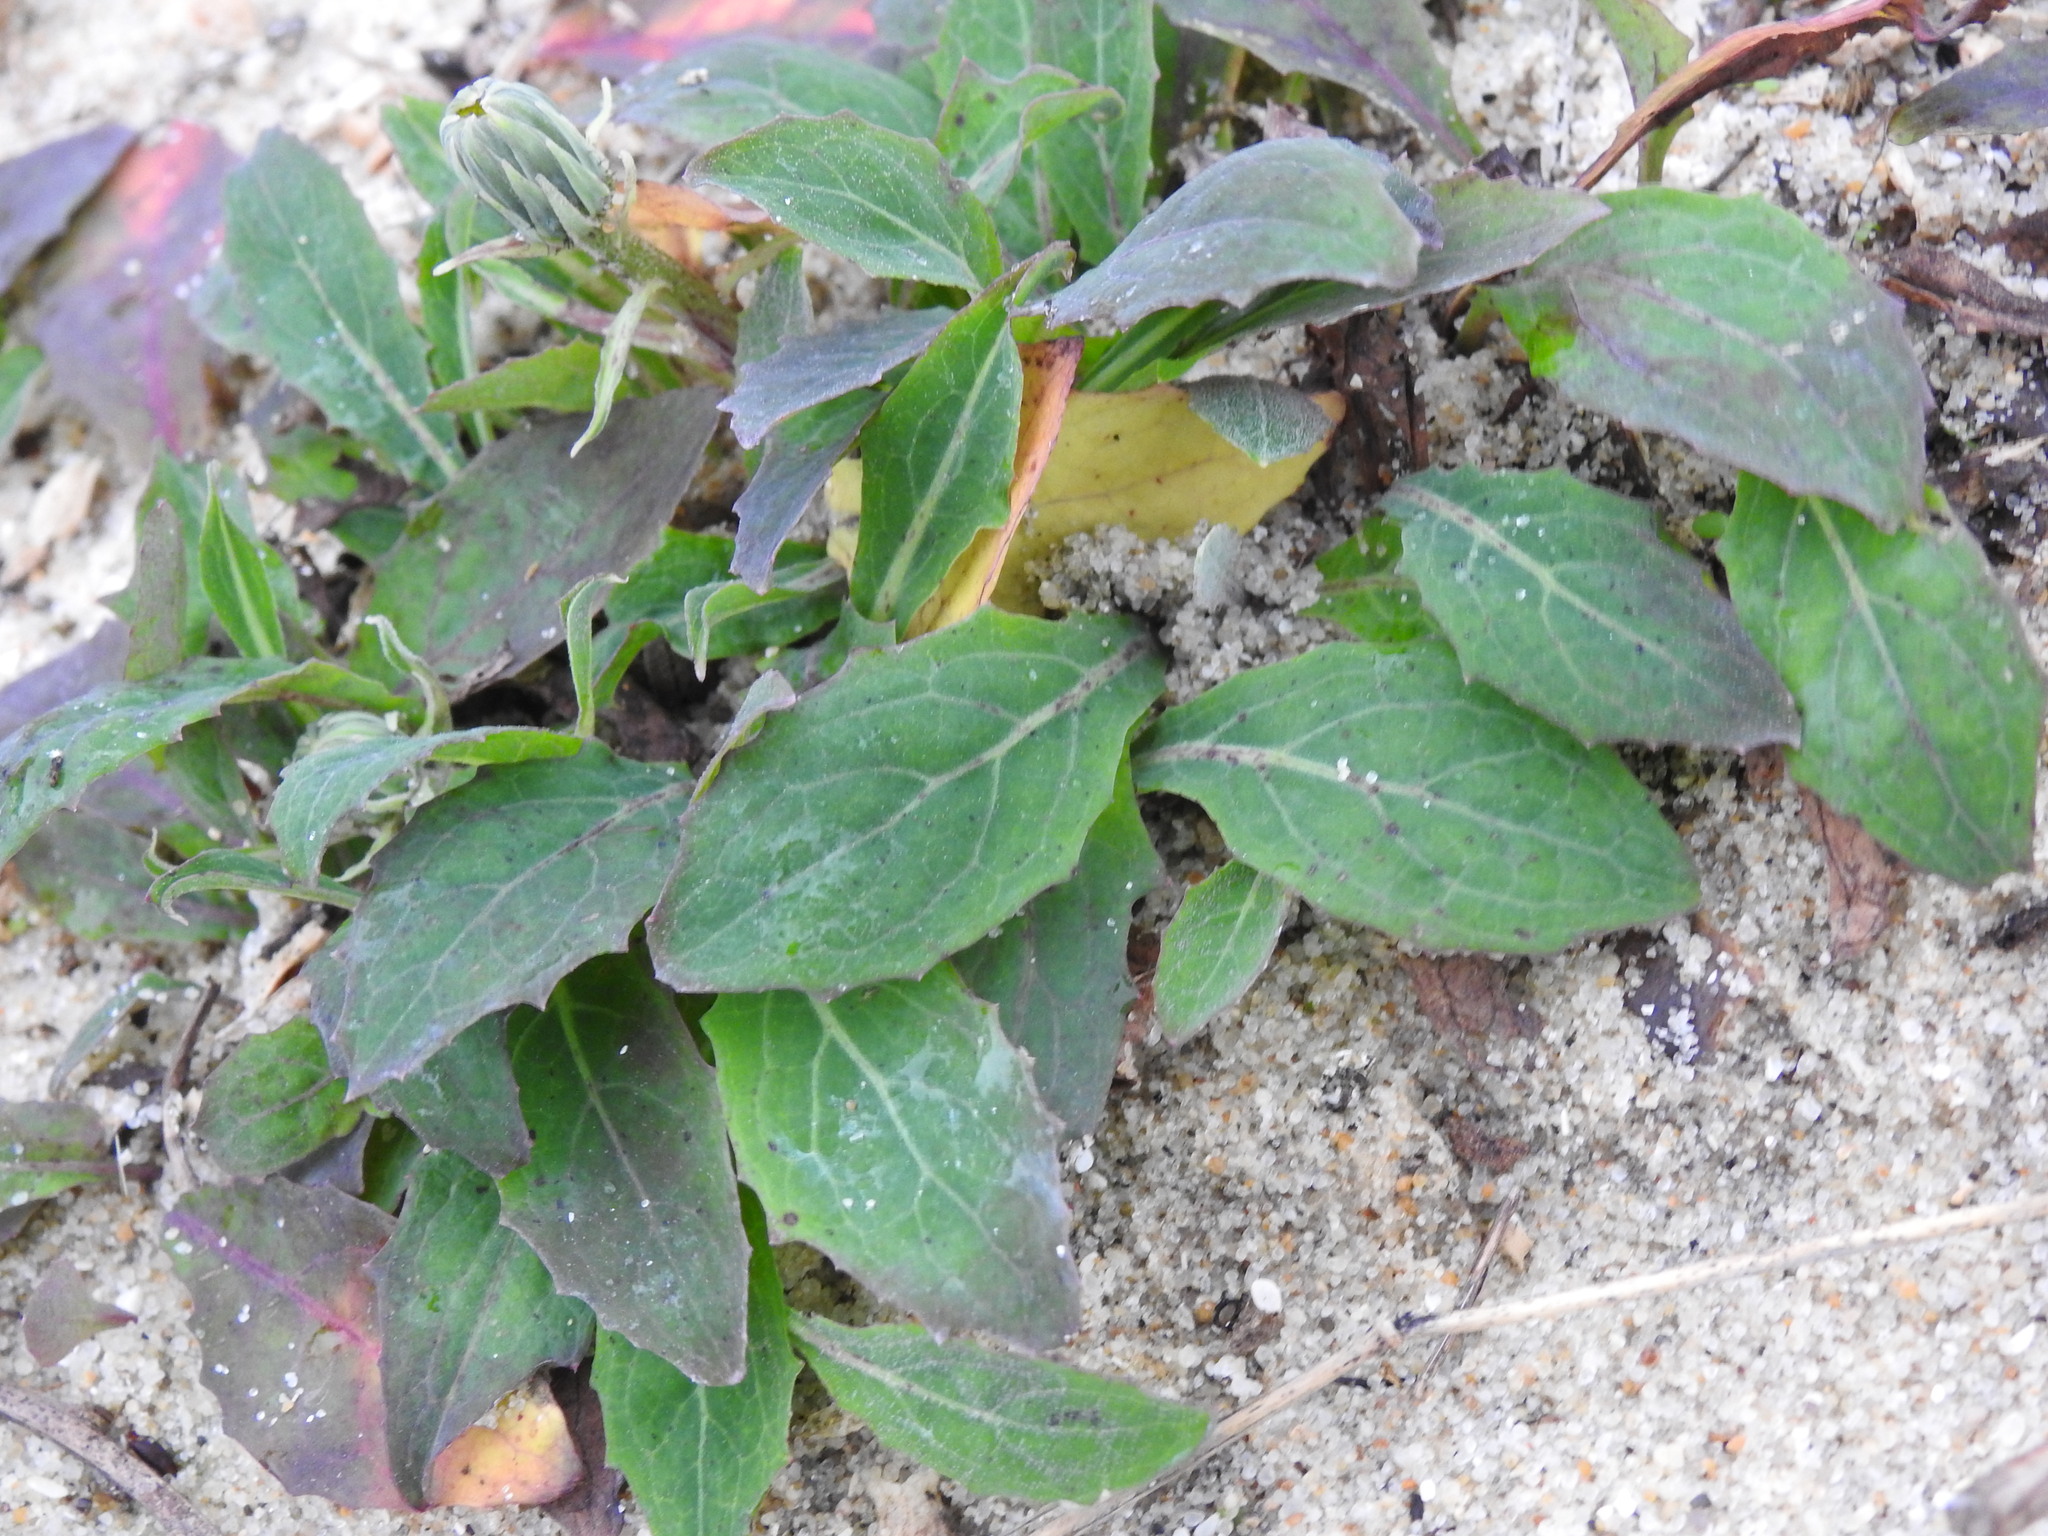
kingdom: Plantae
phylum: Tracheophyta
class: Magnoliopsida
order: Asterales
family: Asteraceae
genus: Aetheorhiza
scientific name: Aetheorhiza bulbosa
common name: Tuberous hawk's-beard
